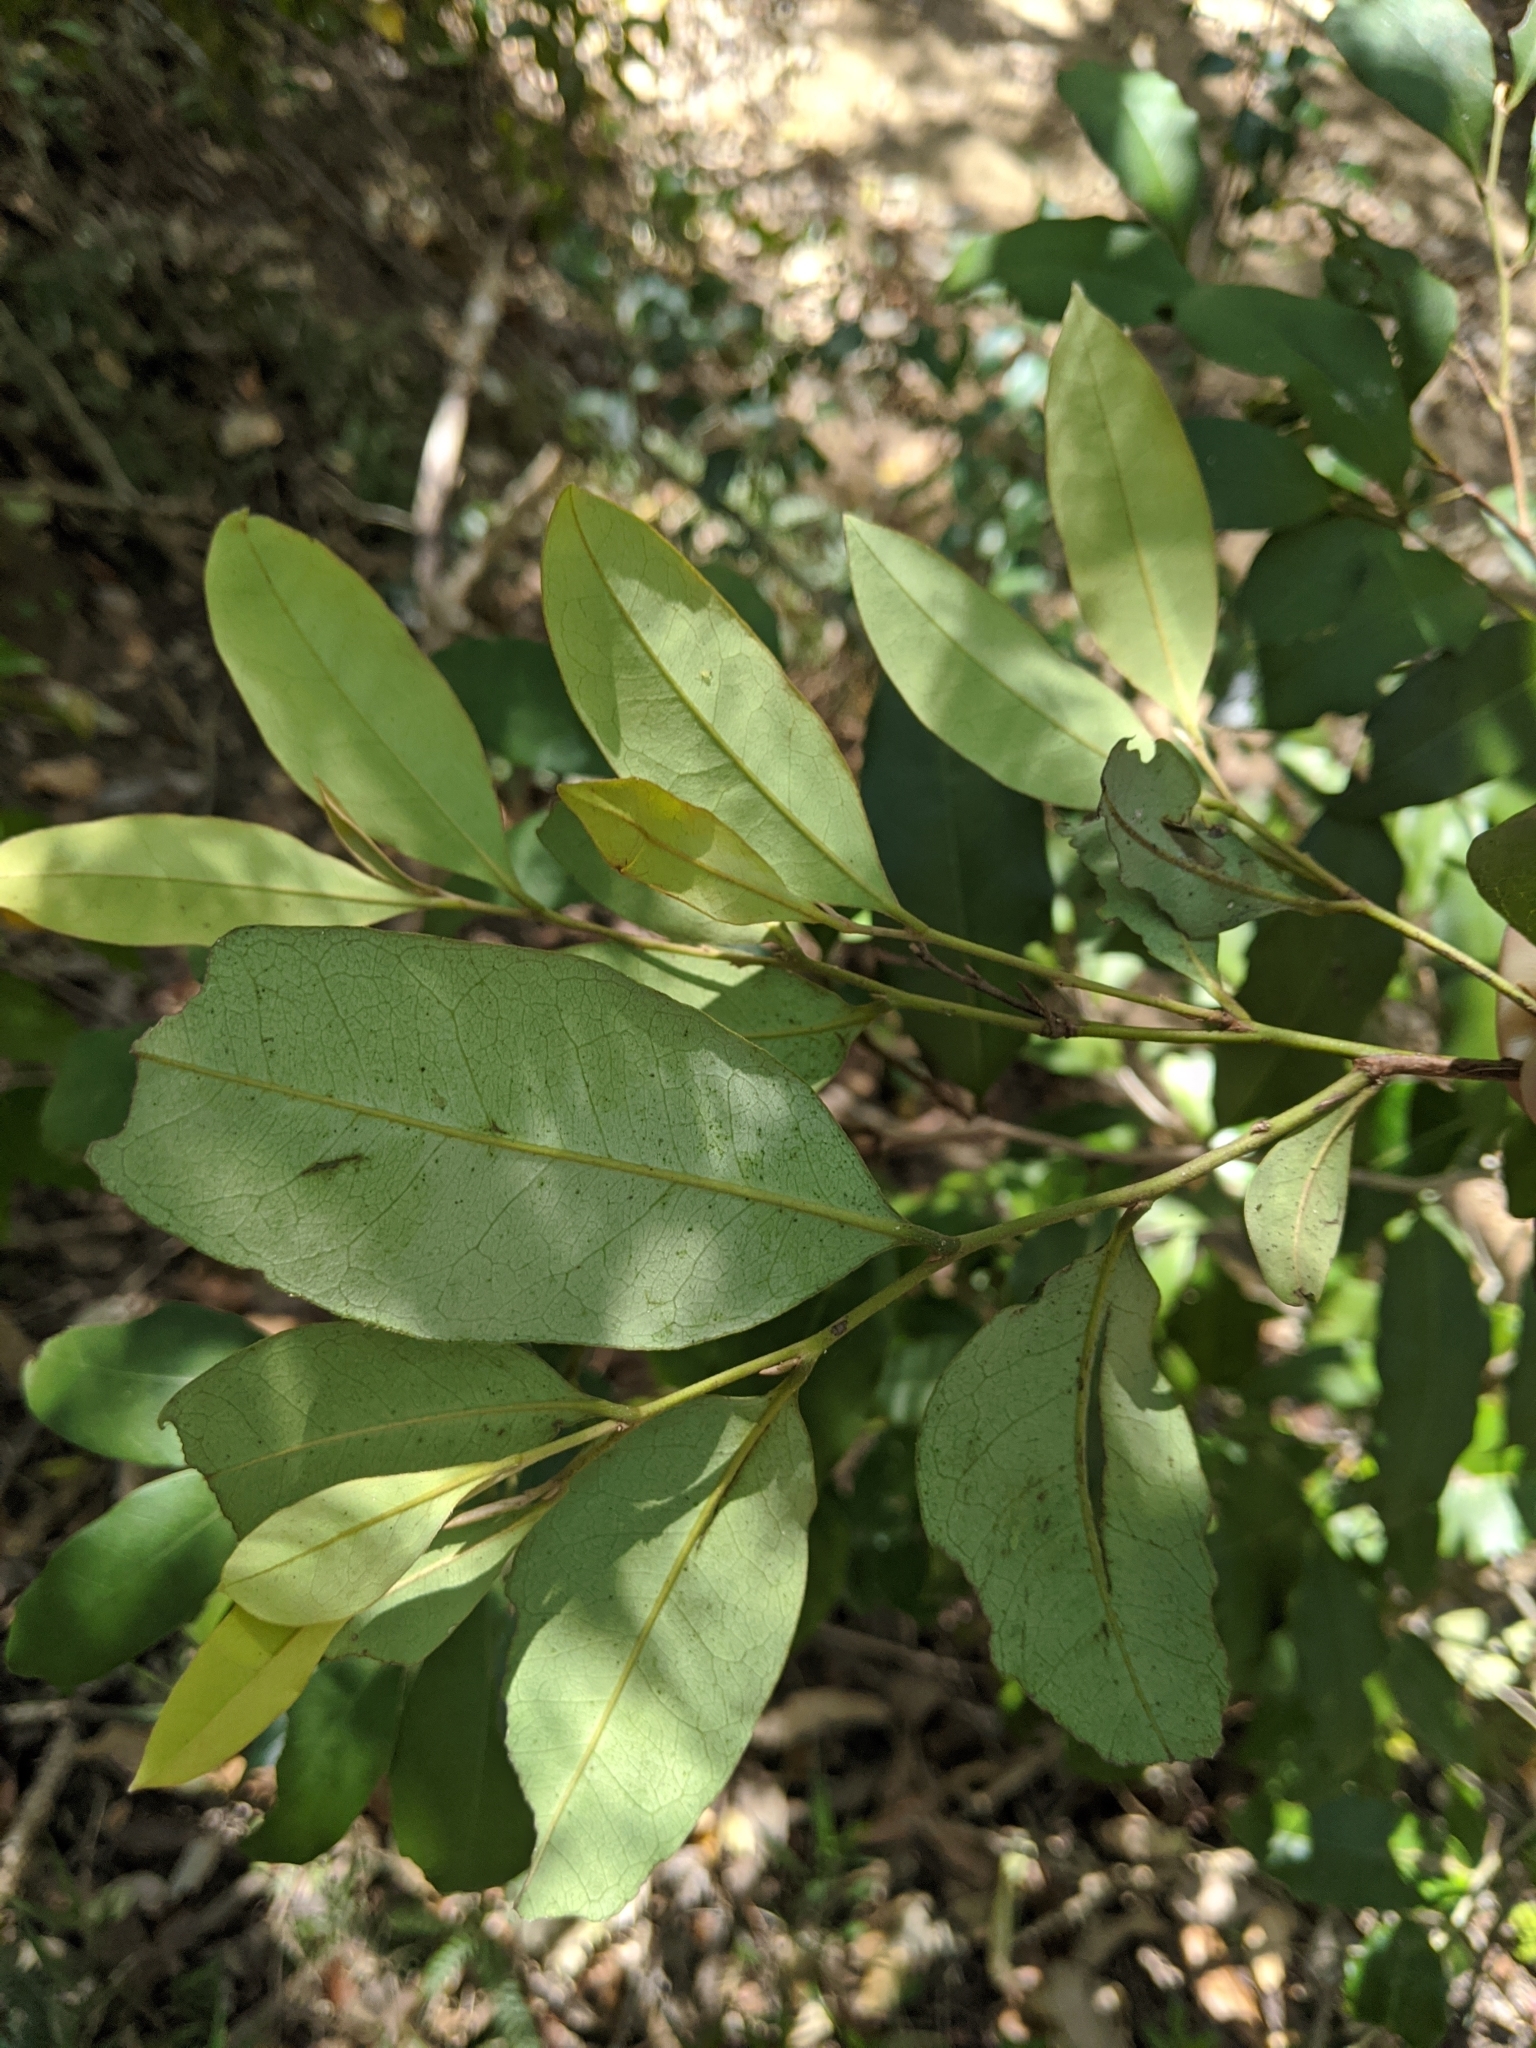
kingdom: Plantae
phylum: Tracheophyta
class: Magnoliopsida
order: Ericales
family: Ebenaceae
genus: Diospyros
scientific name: Diospyros pentamera
